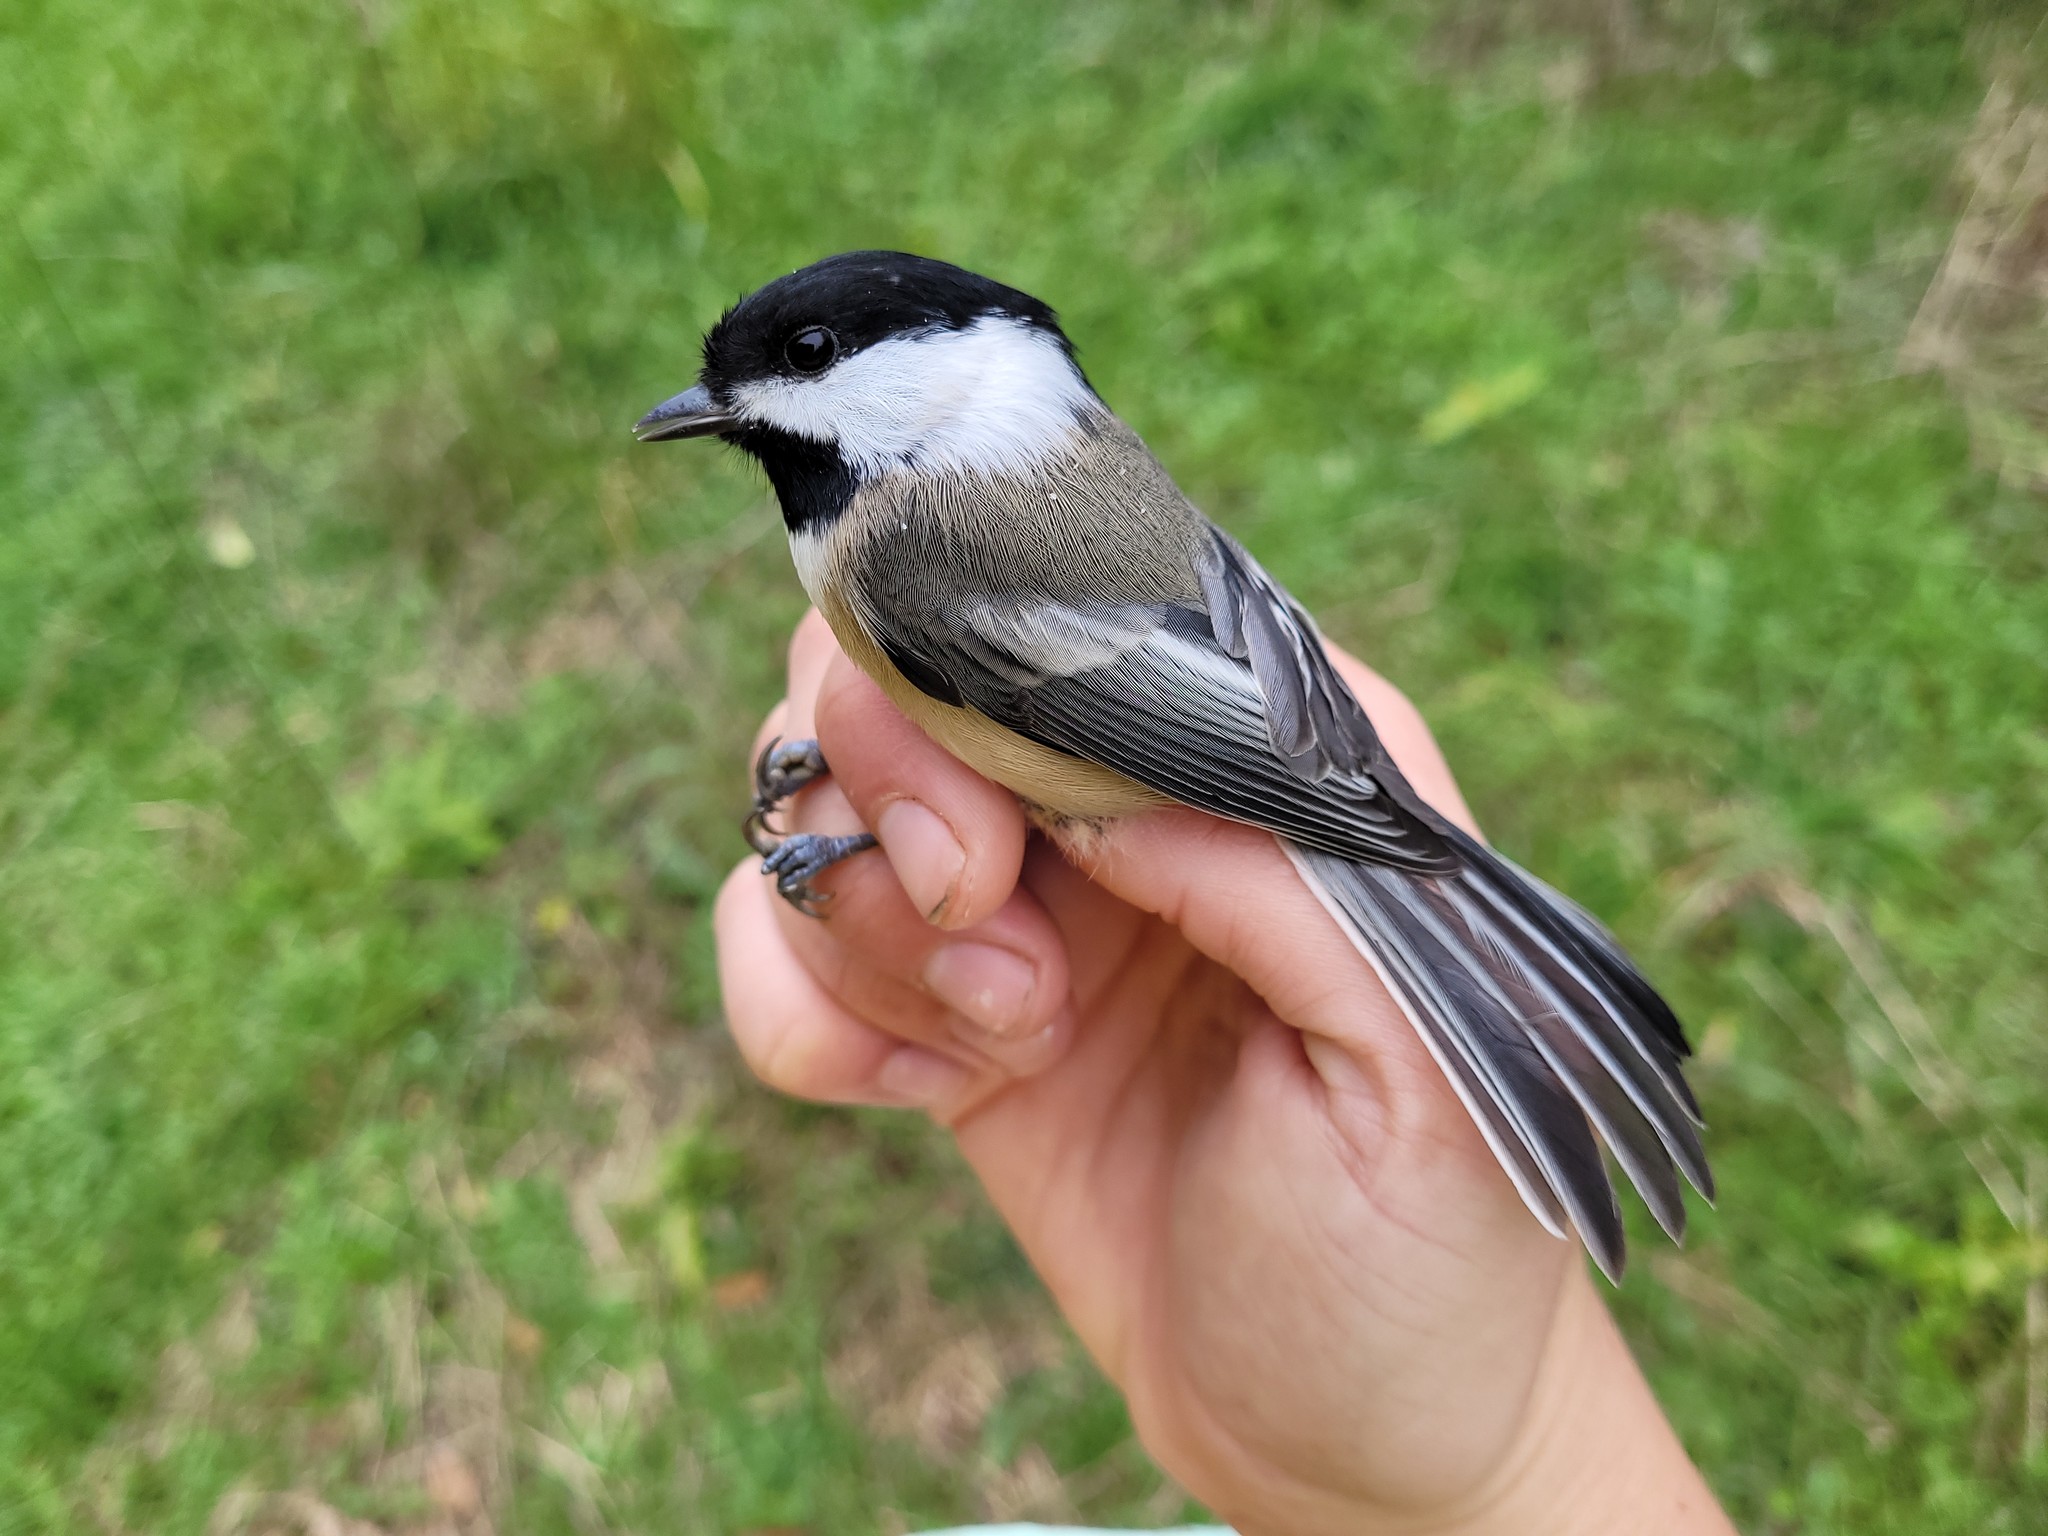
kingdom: Animalia
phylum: Chordata
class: Aves
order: Passeriformes
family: Paridae
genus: Poecile
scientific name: Poecile atricapillus
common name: Black-capped chickadee
